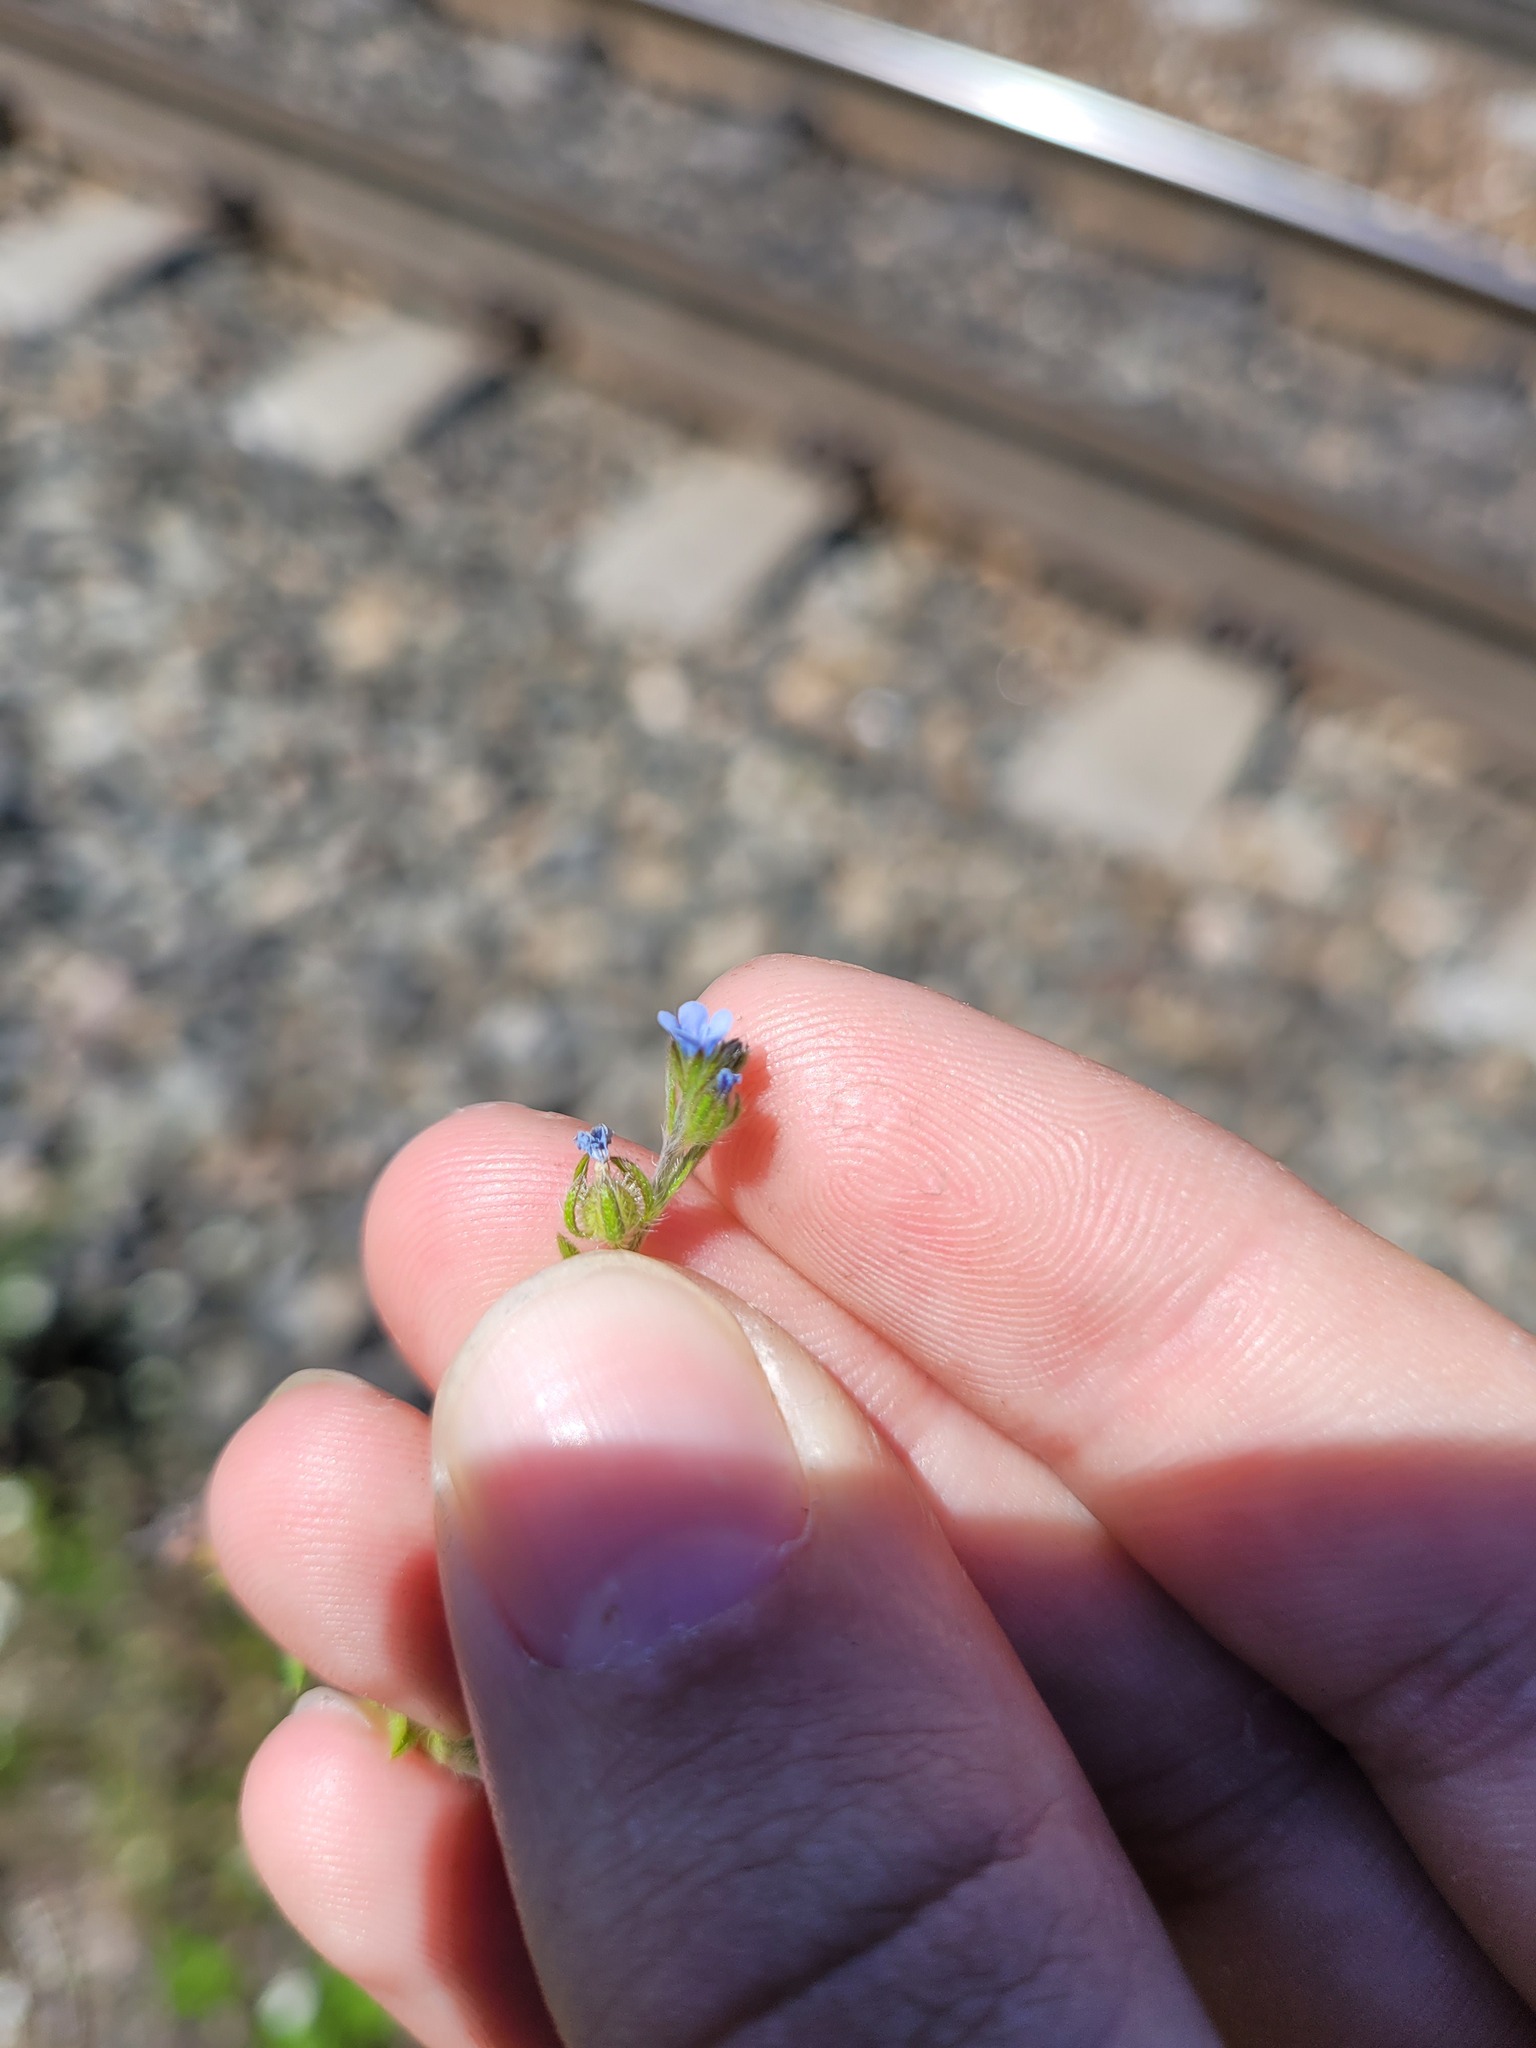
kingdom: Plantae
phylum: Tracheophyta
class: Magnoliopsida
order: Boraginales
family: Boraginaceae
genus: Lappula
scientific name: Lappula squarrosa
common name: European stickseed
